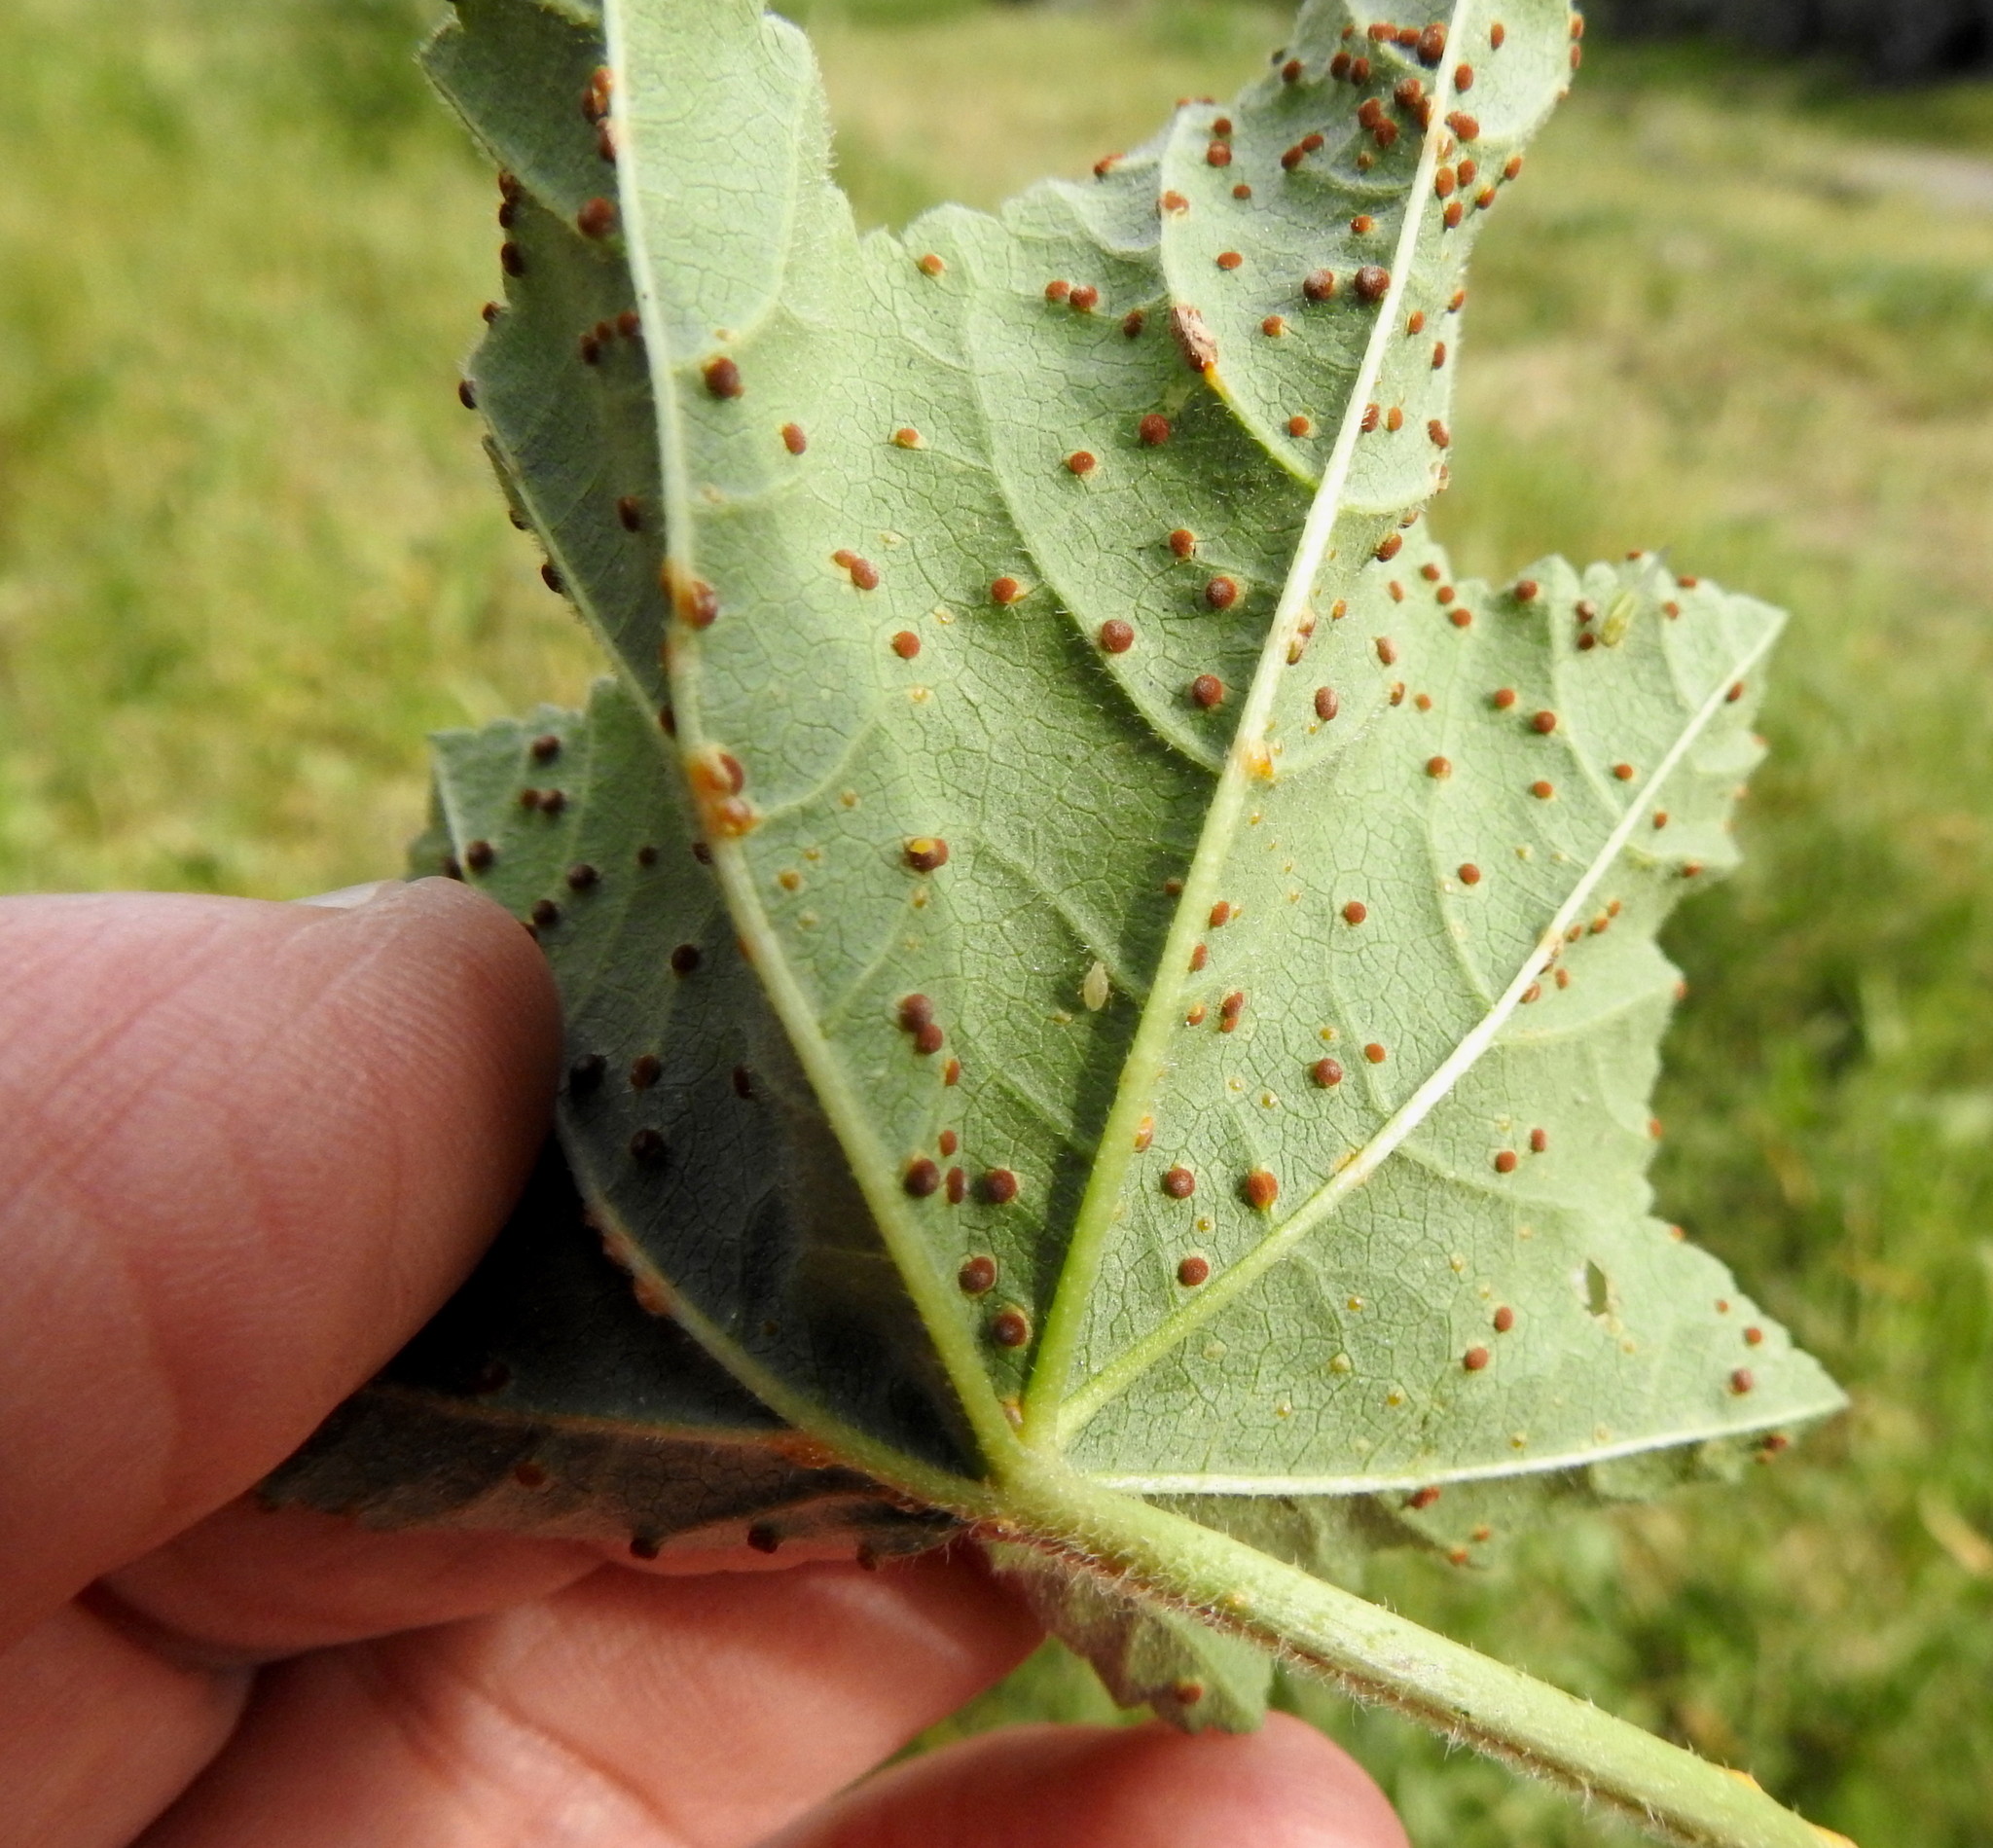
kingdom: Plantae
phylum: Tracheophyta
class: Magnoliopsida
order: Malvales
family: Malvaceae
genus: Malva
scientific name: Malva
